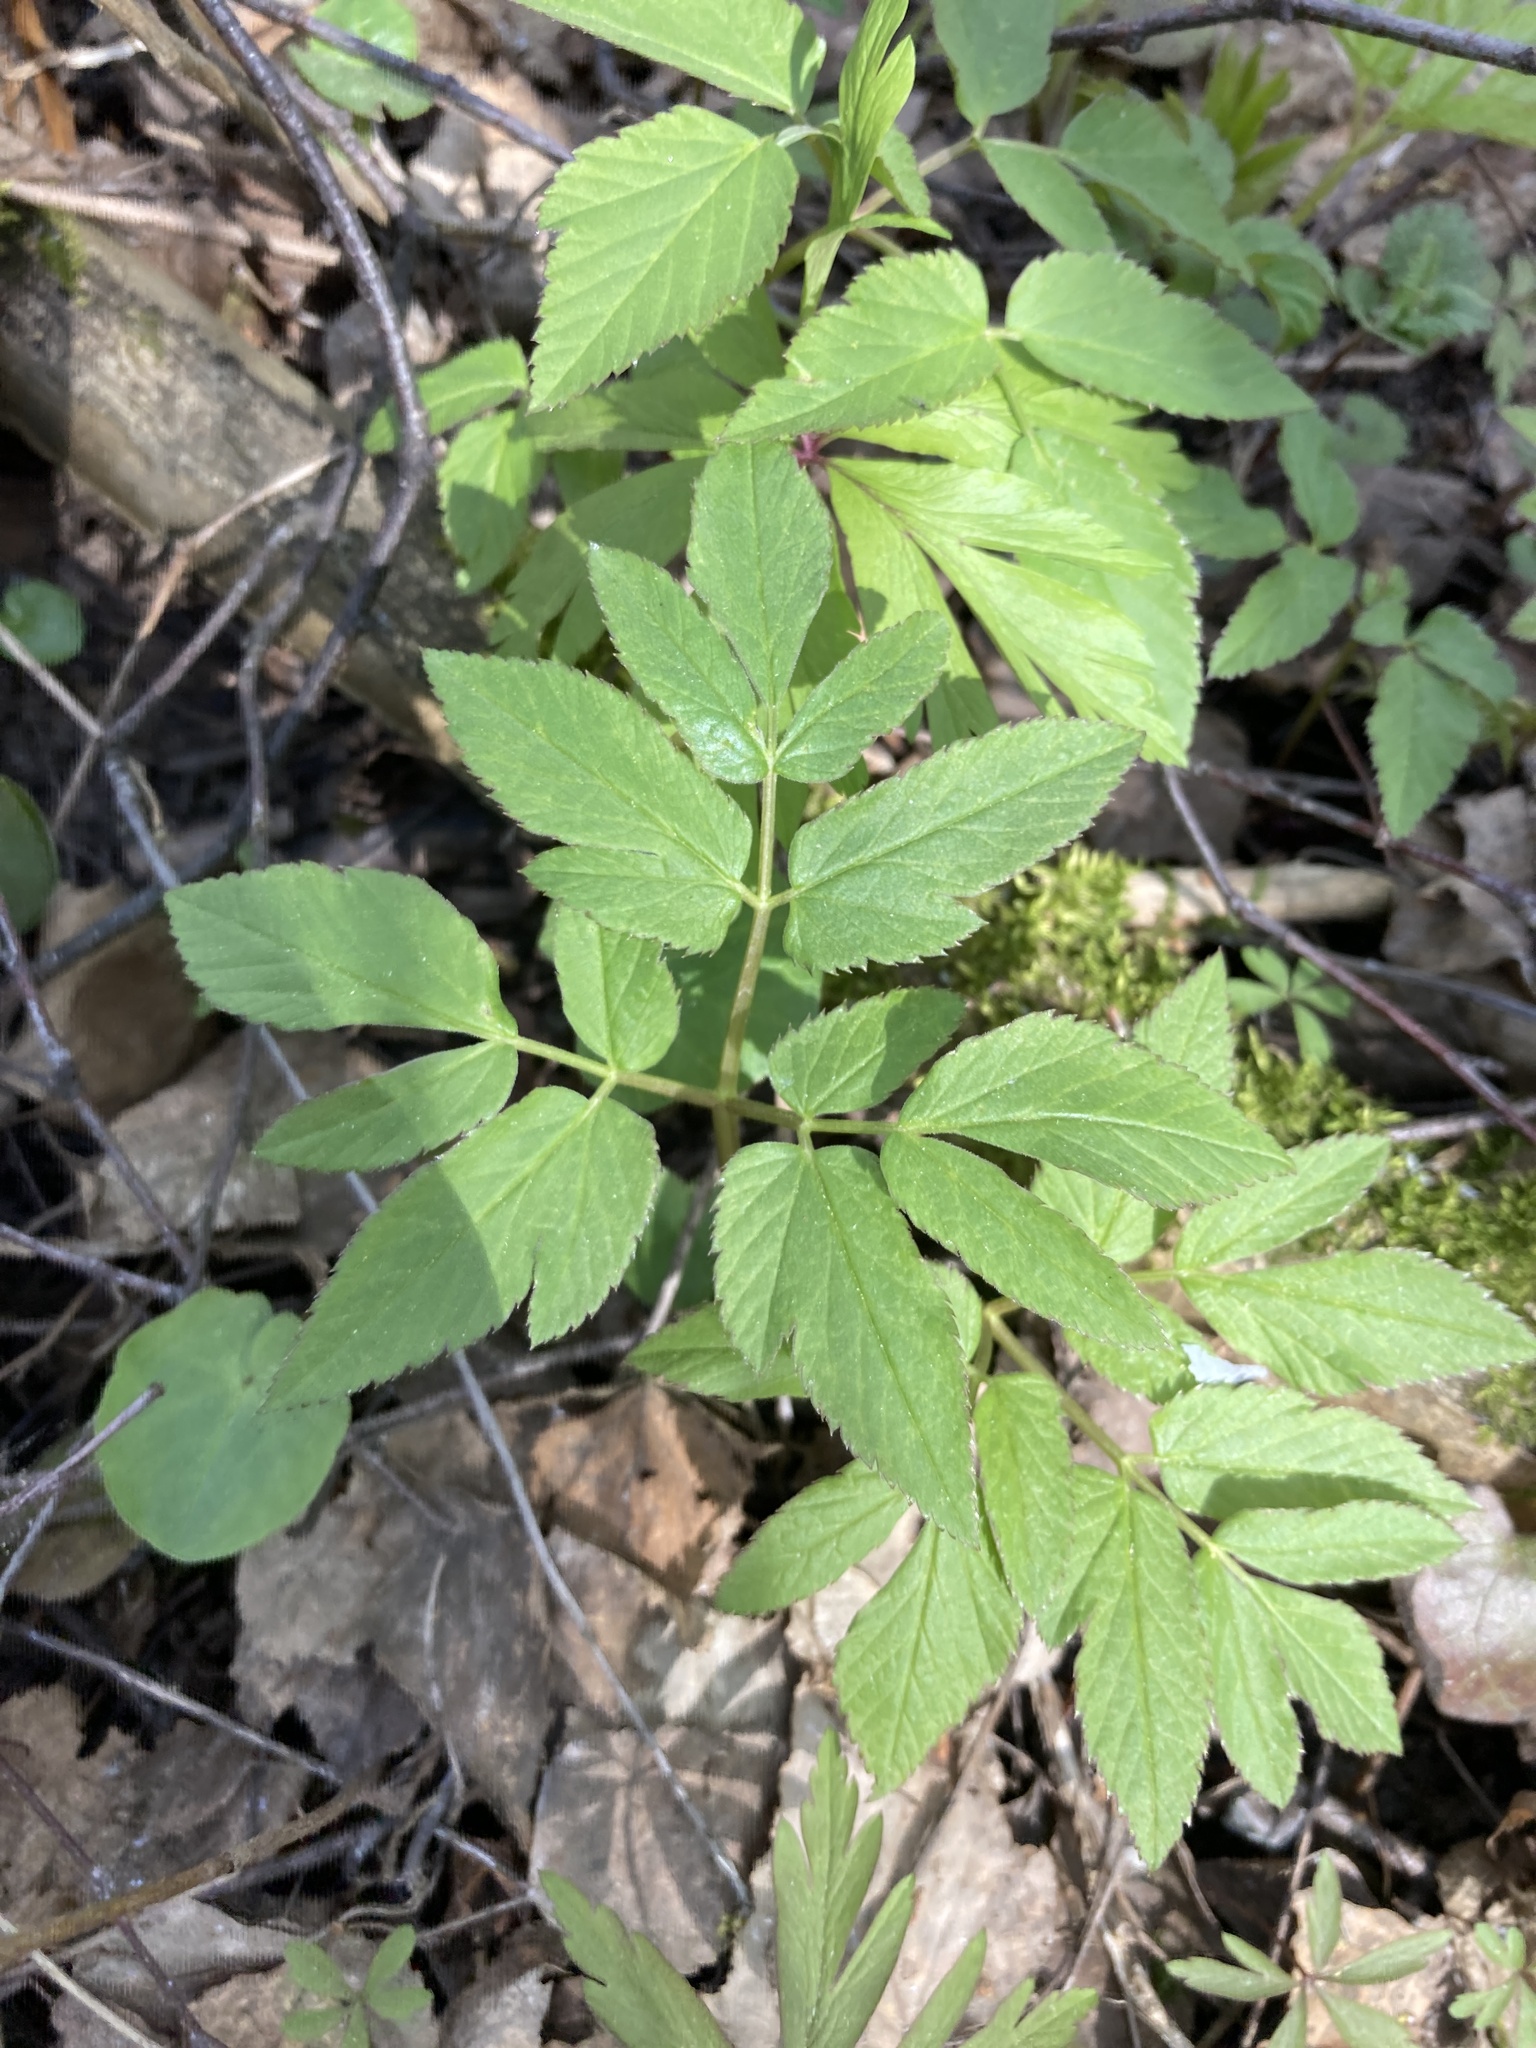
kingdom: Plantae
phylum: Tracheophyta
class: Magnoliopsida
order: Apiales
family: Apiaceae
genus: Aegopodium
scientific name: Aegopodium podagraria
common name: Ground-elder
